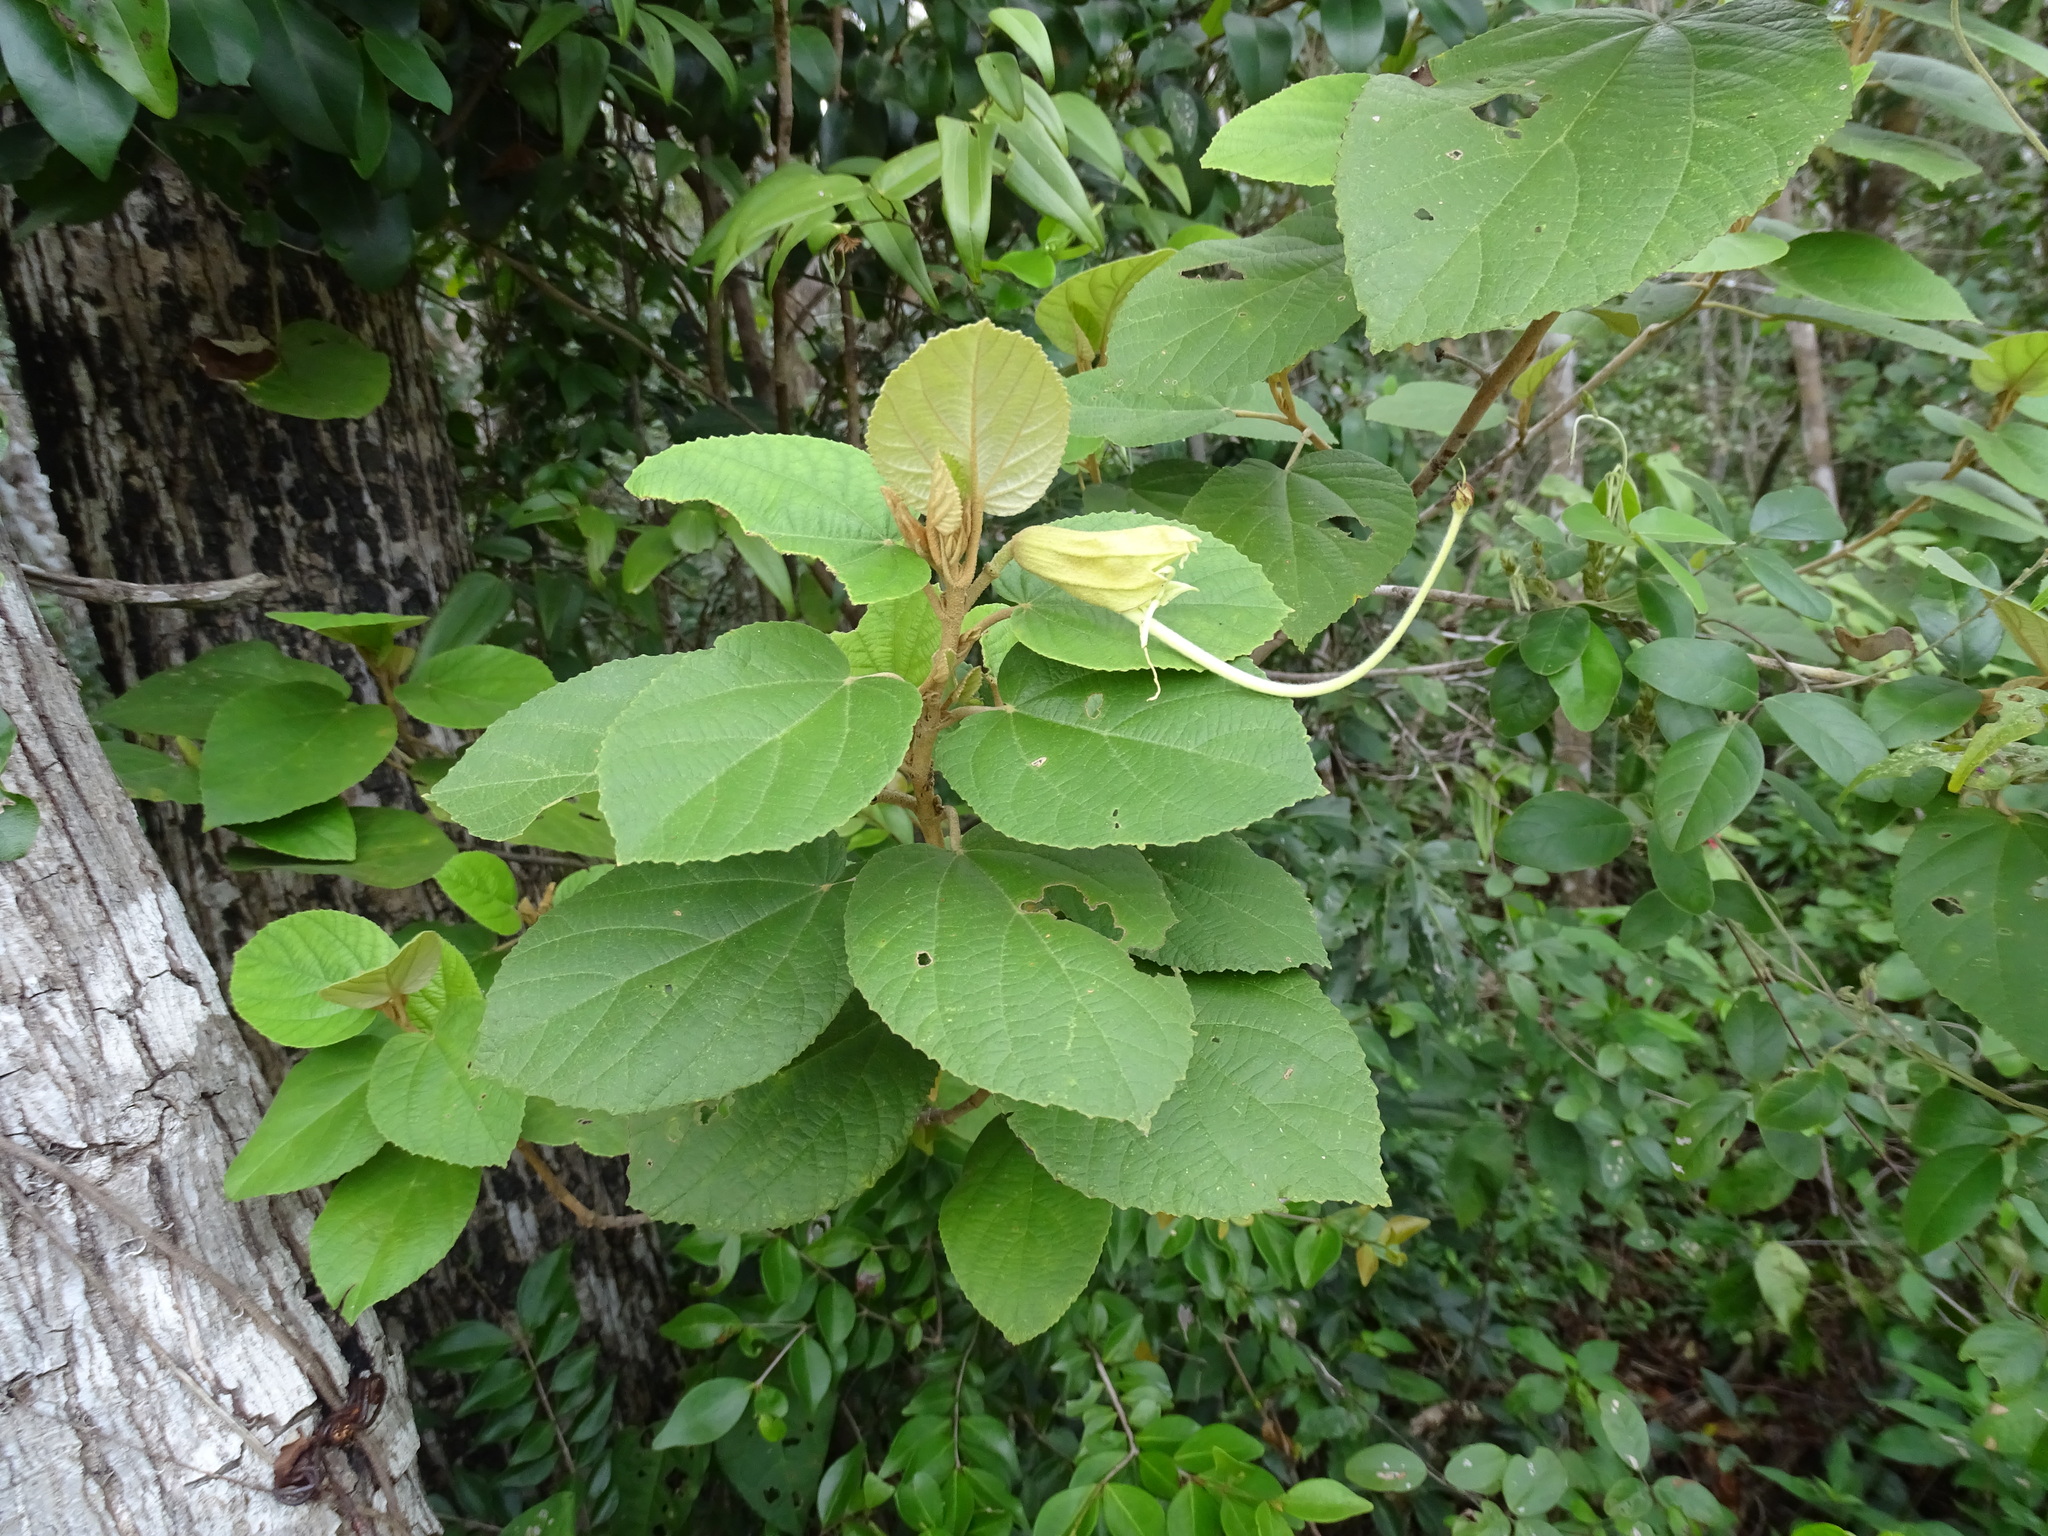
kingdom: Plantae
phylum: Tracheophyta
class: Magnoliopsida
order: Malvales
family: Malvaceae
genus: Helicteres
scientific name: Helicteres baruensis
